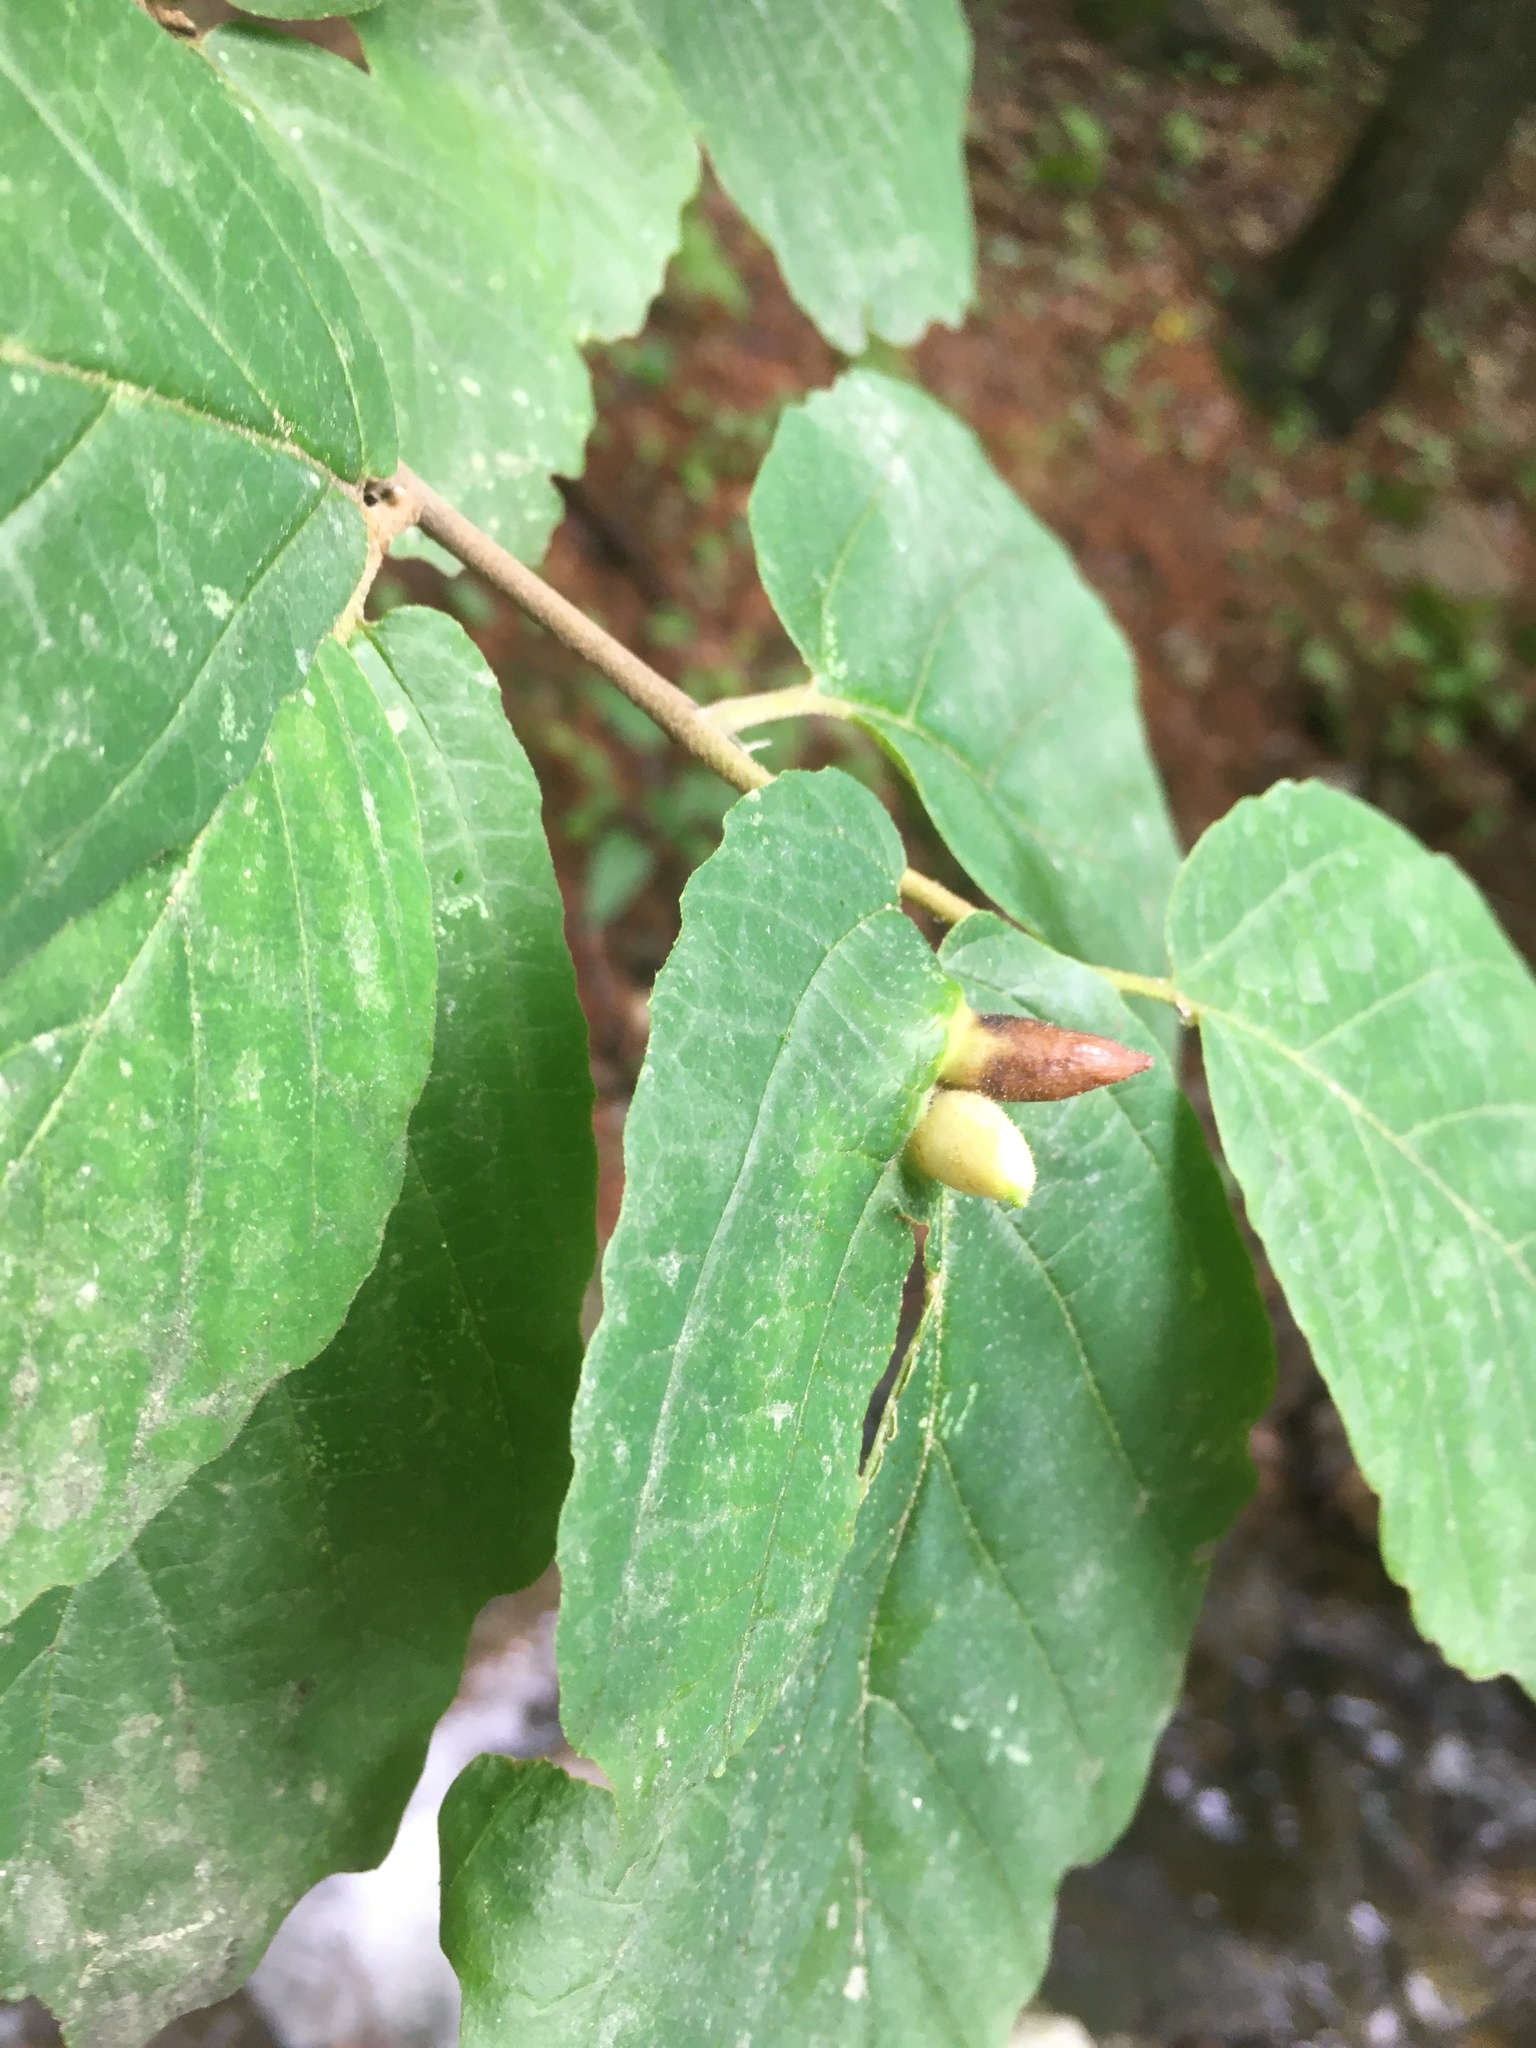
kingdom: Animalia
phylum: Arthropoda
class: Insecta
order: Hemiptera
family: Aphididae
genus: Hormaphis
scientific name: Hormaphis hamamelidis
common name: Witch-hazel cone gall aphid
